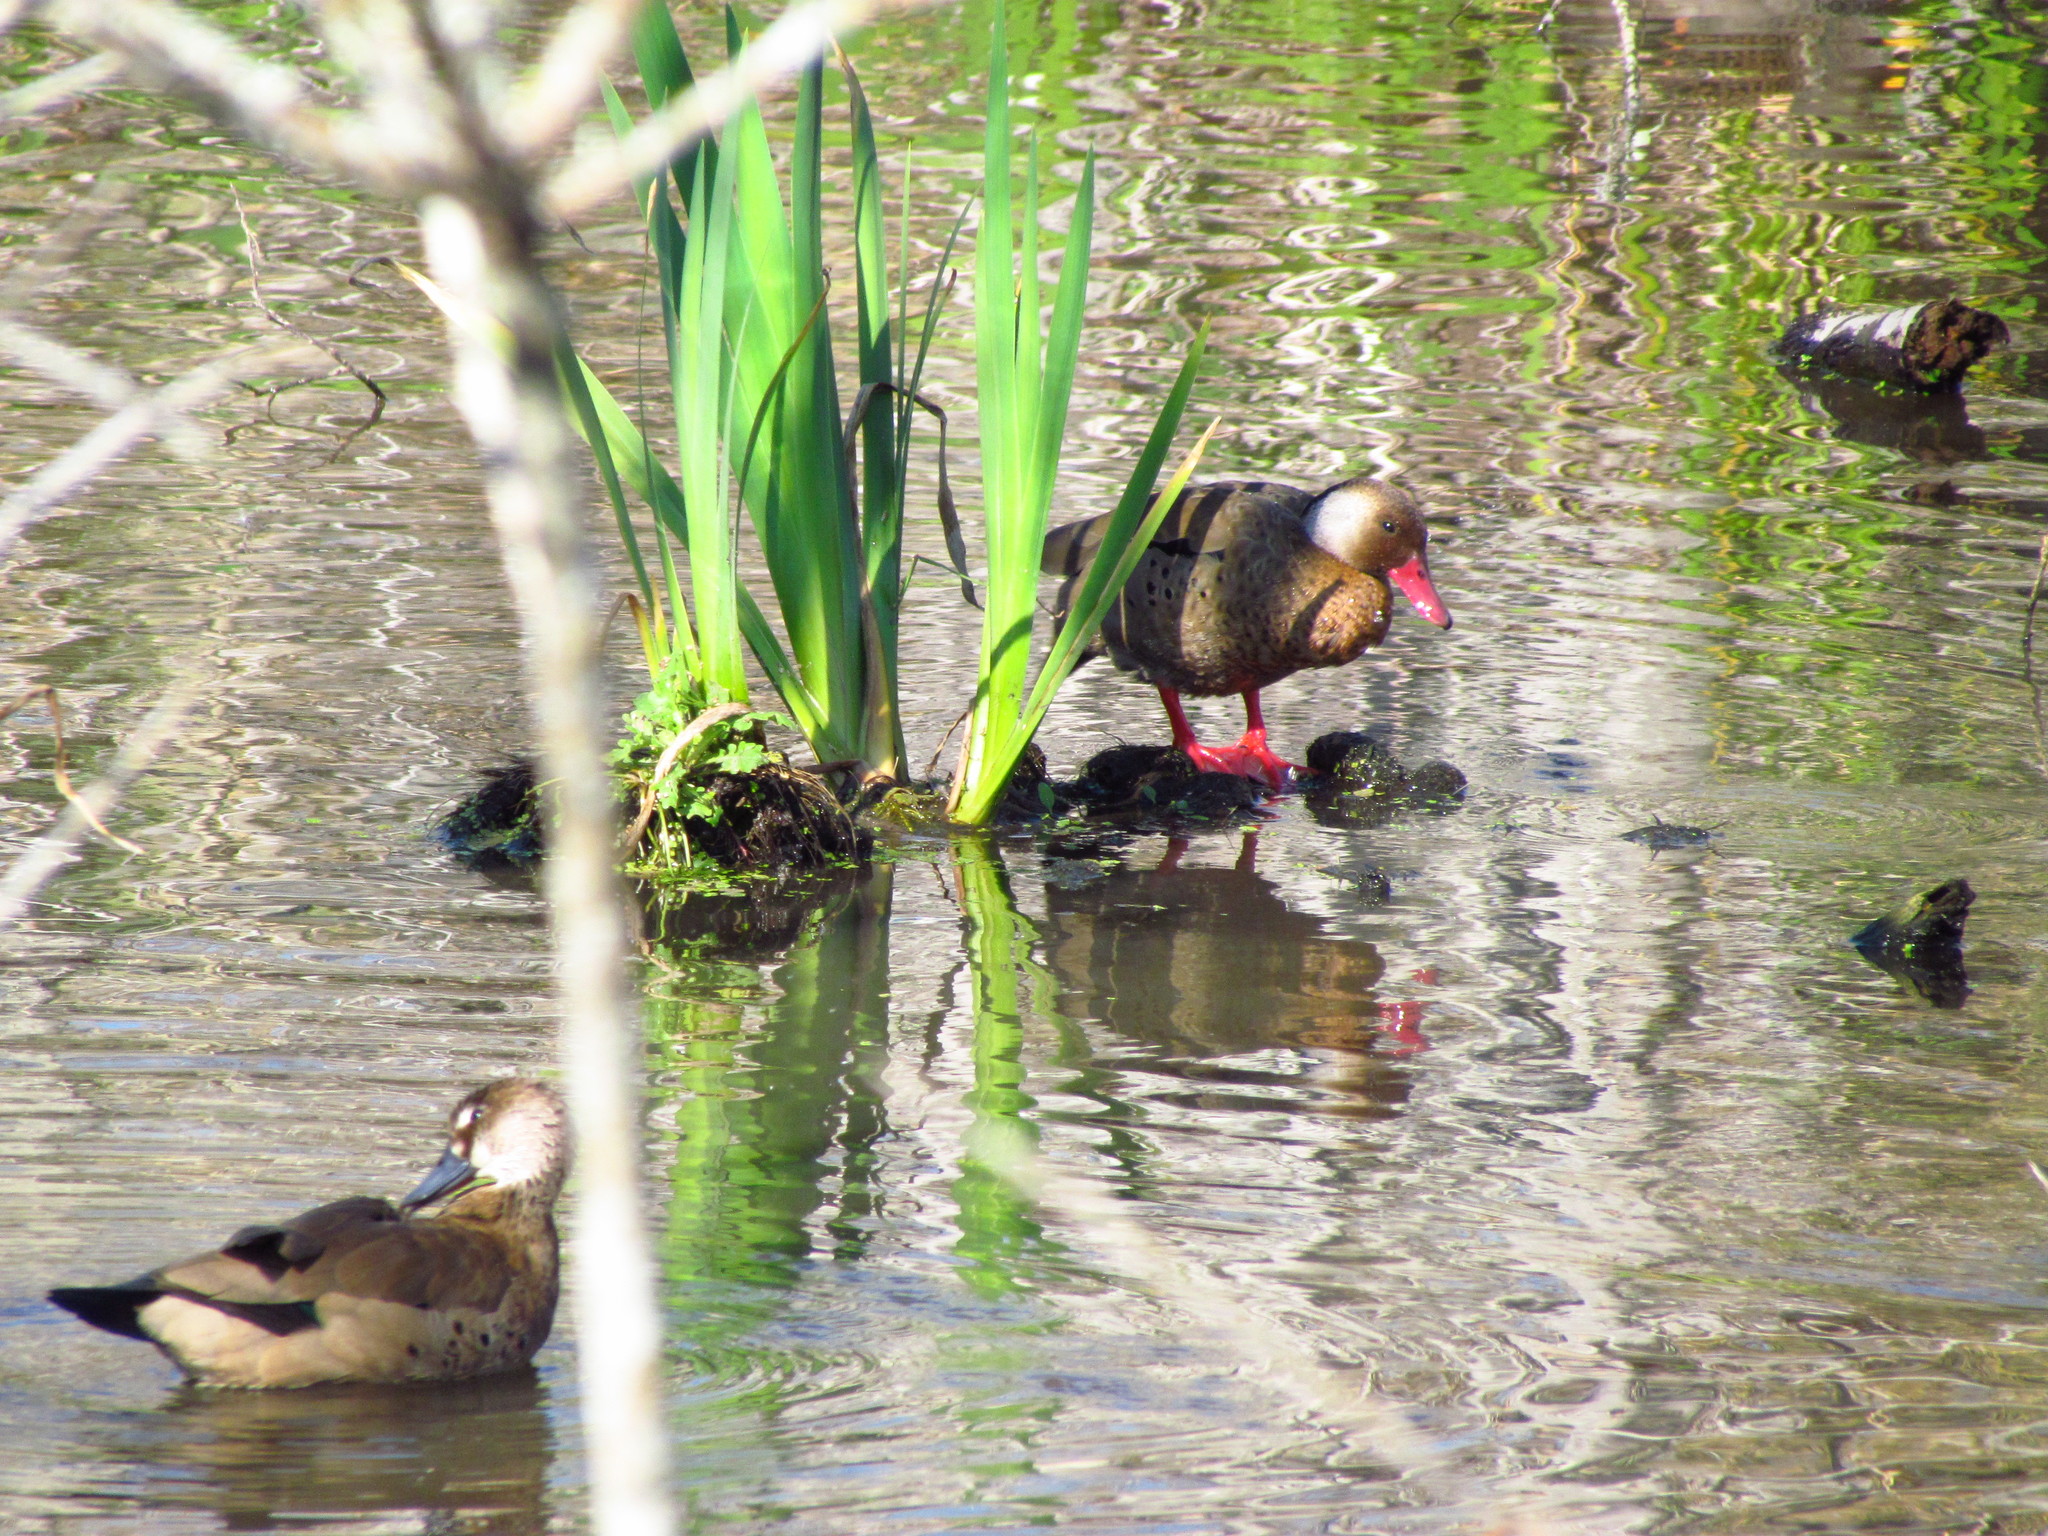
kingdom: Animalia
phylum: Chordata
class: Aves
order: Anseriformes
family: Anatidae
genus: Amazonetta
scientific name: Amazonetta brasiliensis
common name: Brazilian teal
